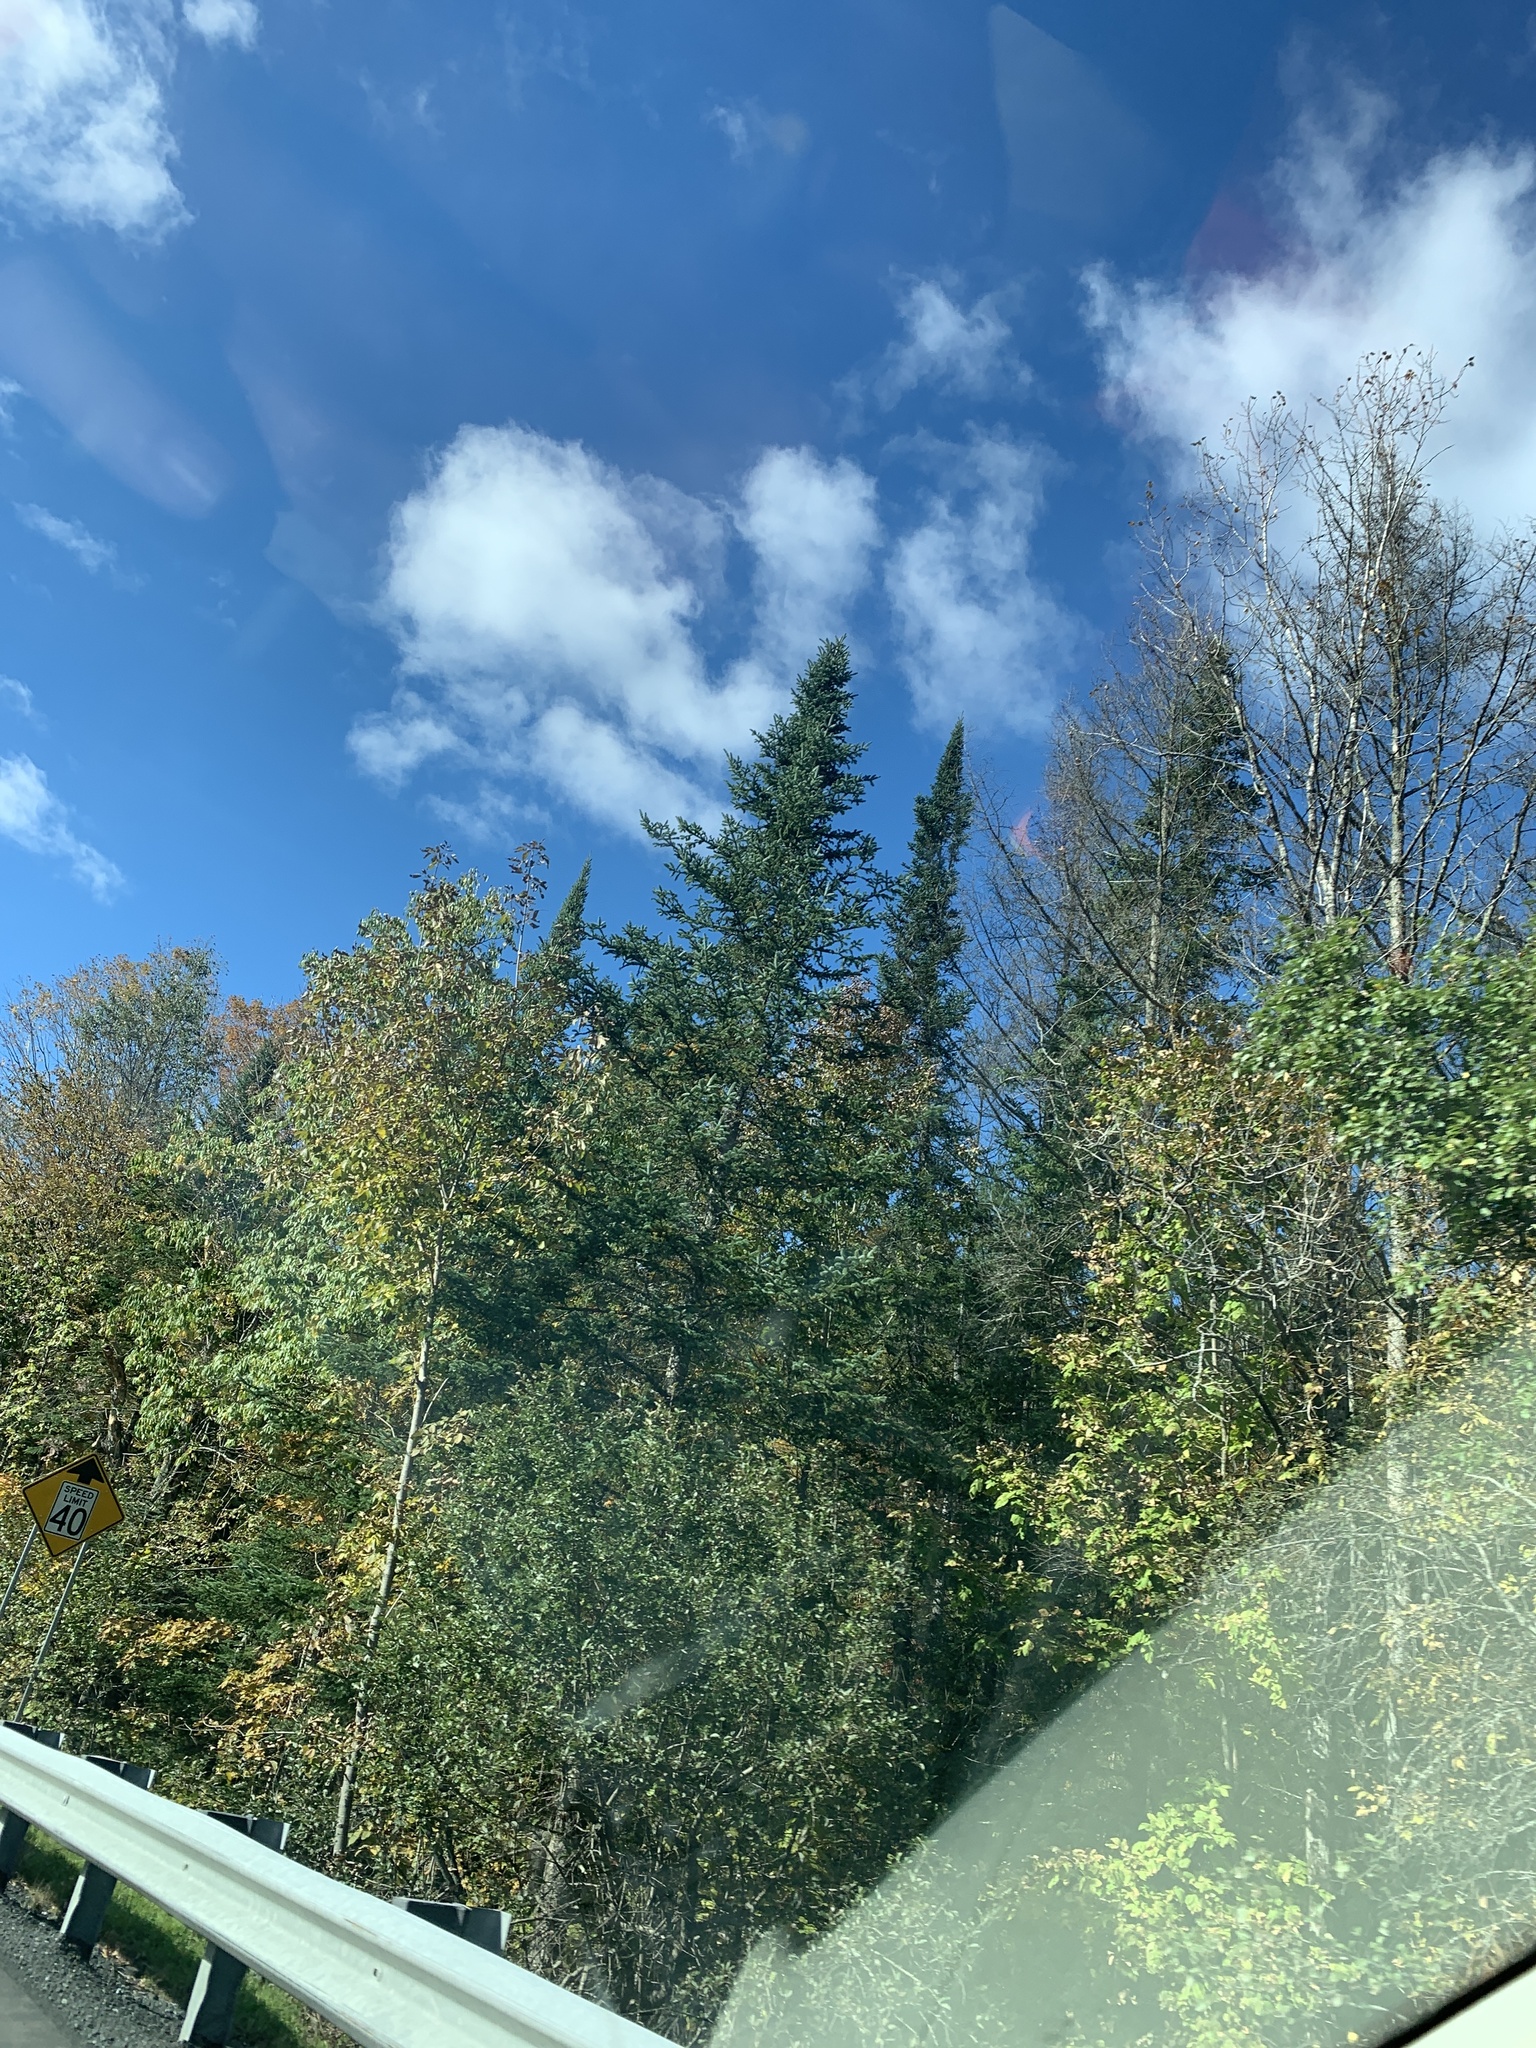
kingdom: Plantae
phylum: Tracheophyta
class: Pinopsida
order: Pinales
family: Pinaceae
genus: Abies
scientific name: Abies balsamea
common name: Balsam fir
